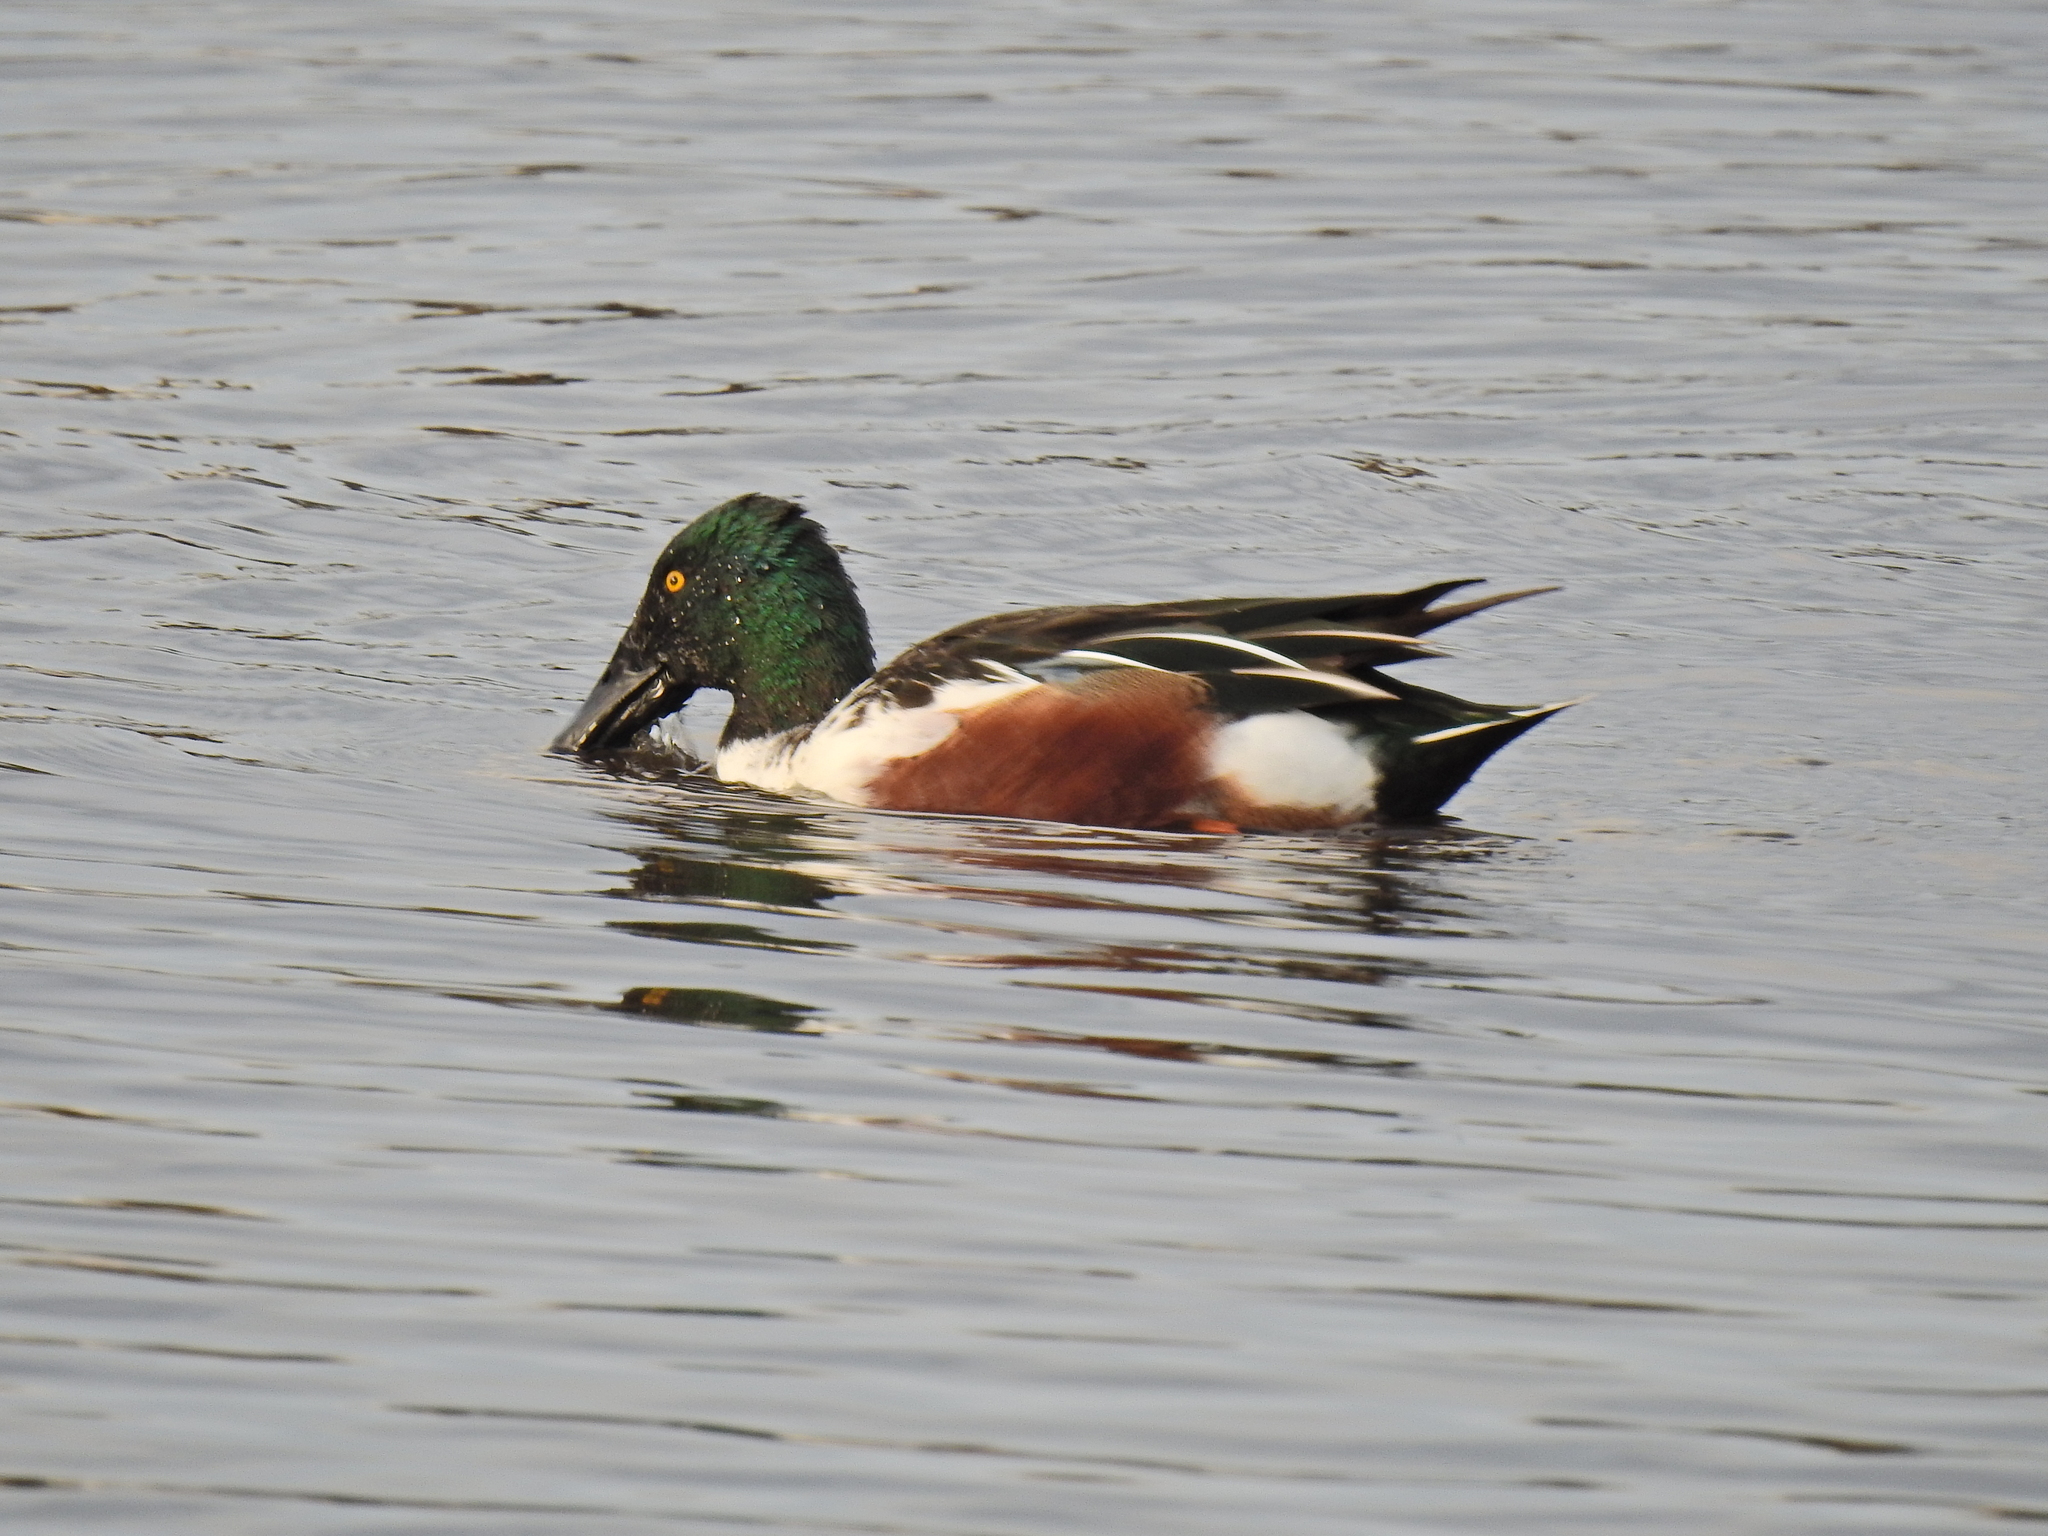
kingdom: Animalia
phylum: Chordata
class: Aves
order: Anseriformes
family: Anatidae
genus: Spatula
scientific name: Spatula clypeata
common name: Northern shoveler
